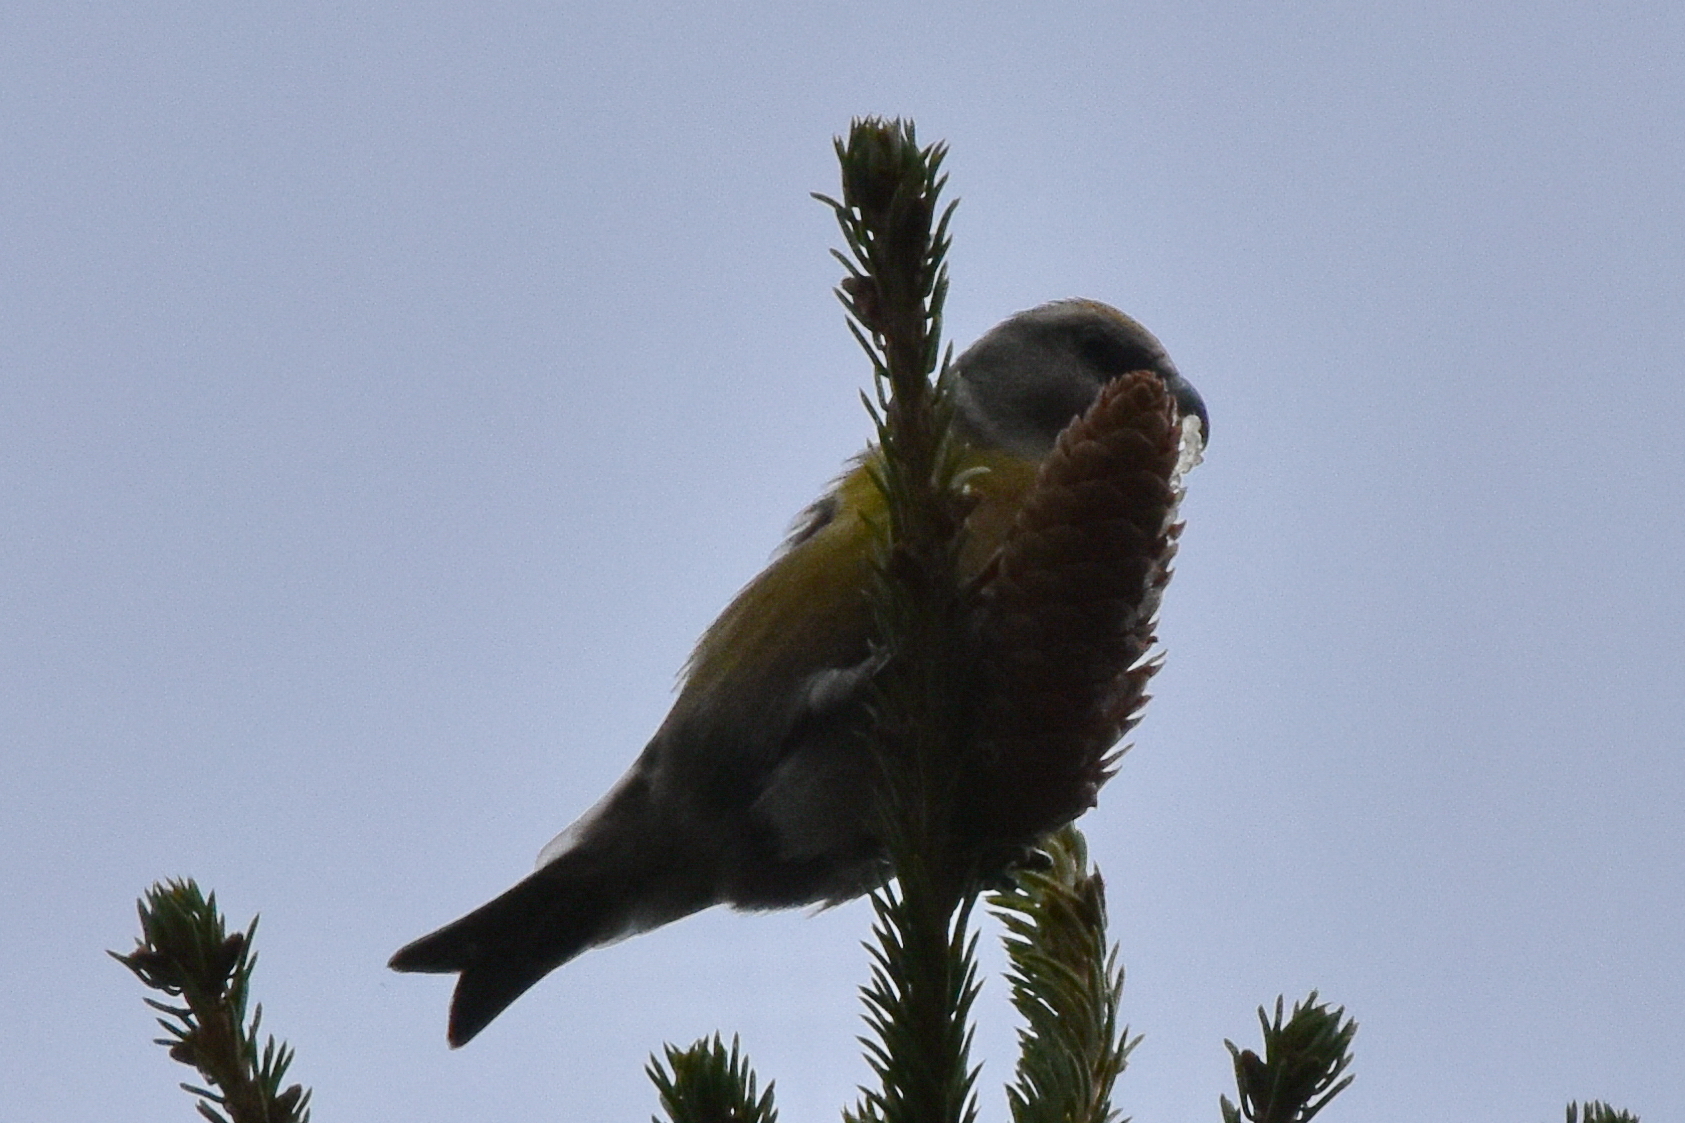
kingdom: Animalia
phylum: Chordata
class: Aves
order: Passeriformes
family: Fringillidae
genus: Loxia
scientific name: Loxia curvirostra
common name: Red crossbill
